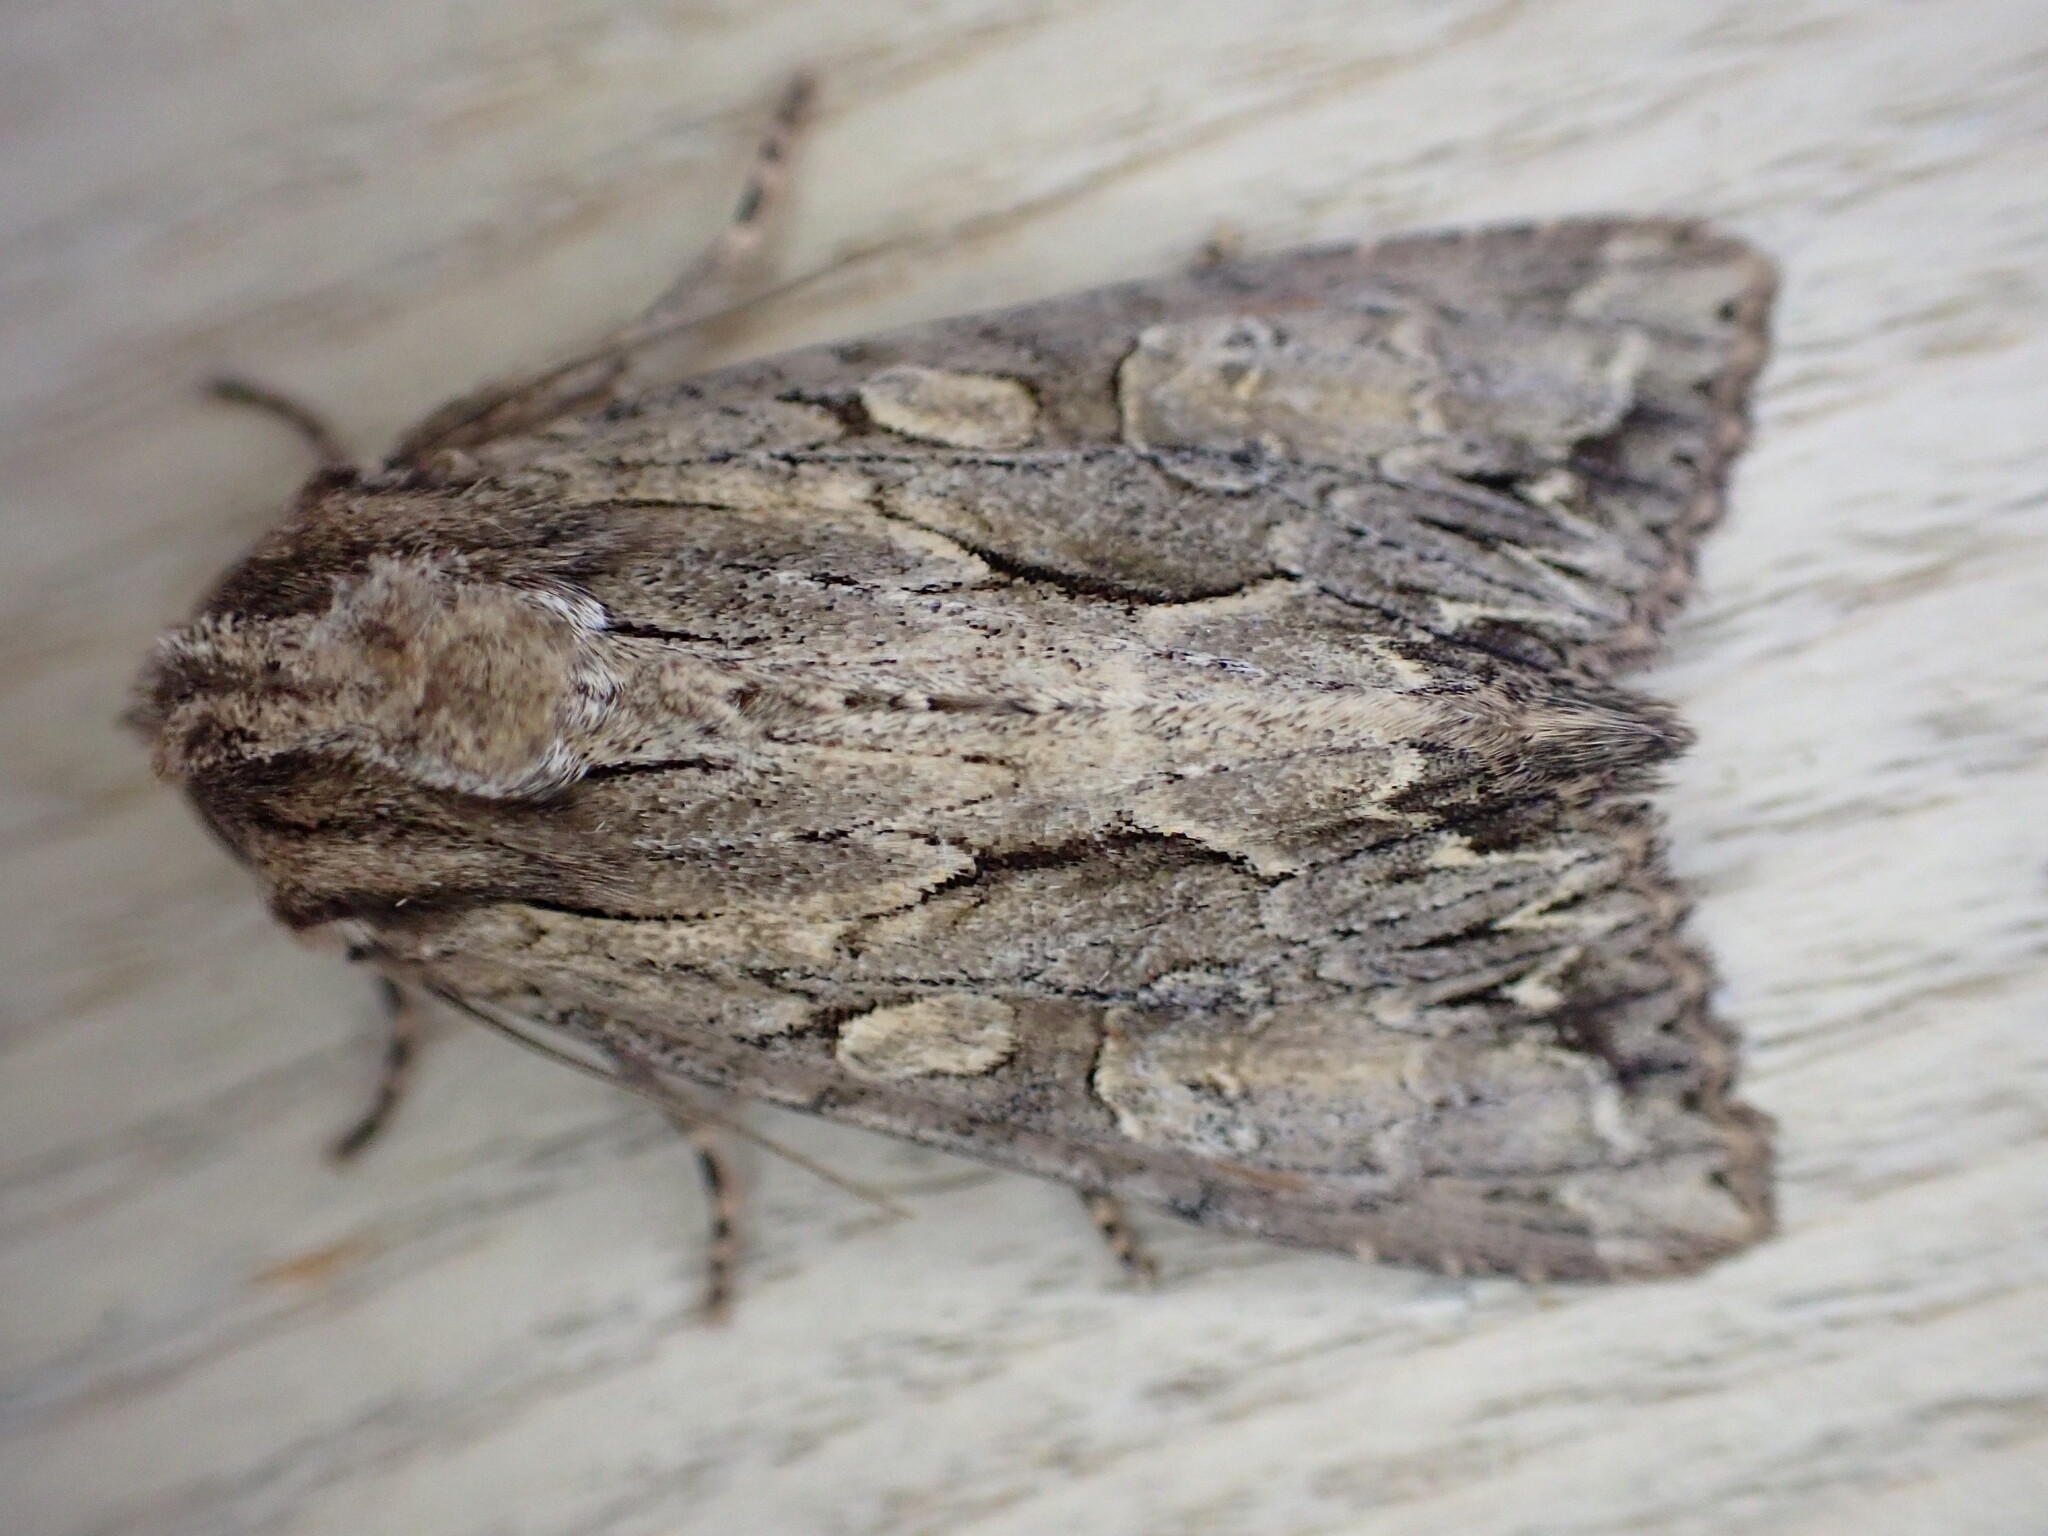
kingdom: Animalia
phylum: Arthropoda
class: Insecta
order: Lepidoptera
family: Noctuidae
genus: Apamea
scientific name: Apamea monoglypha
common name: Dark arches
